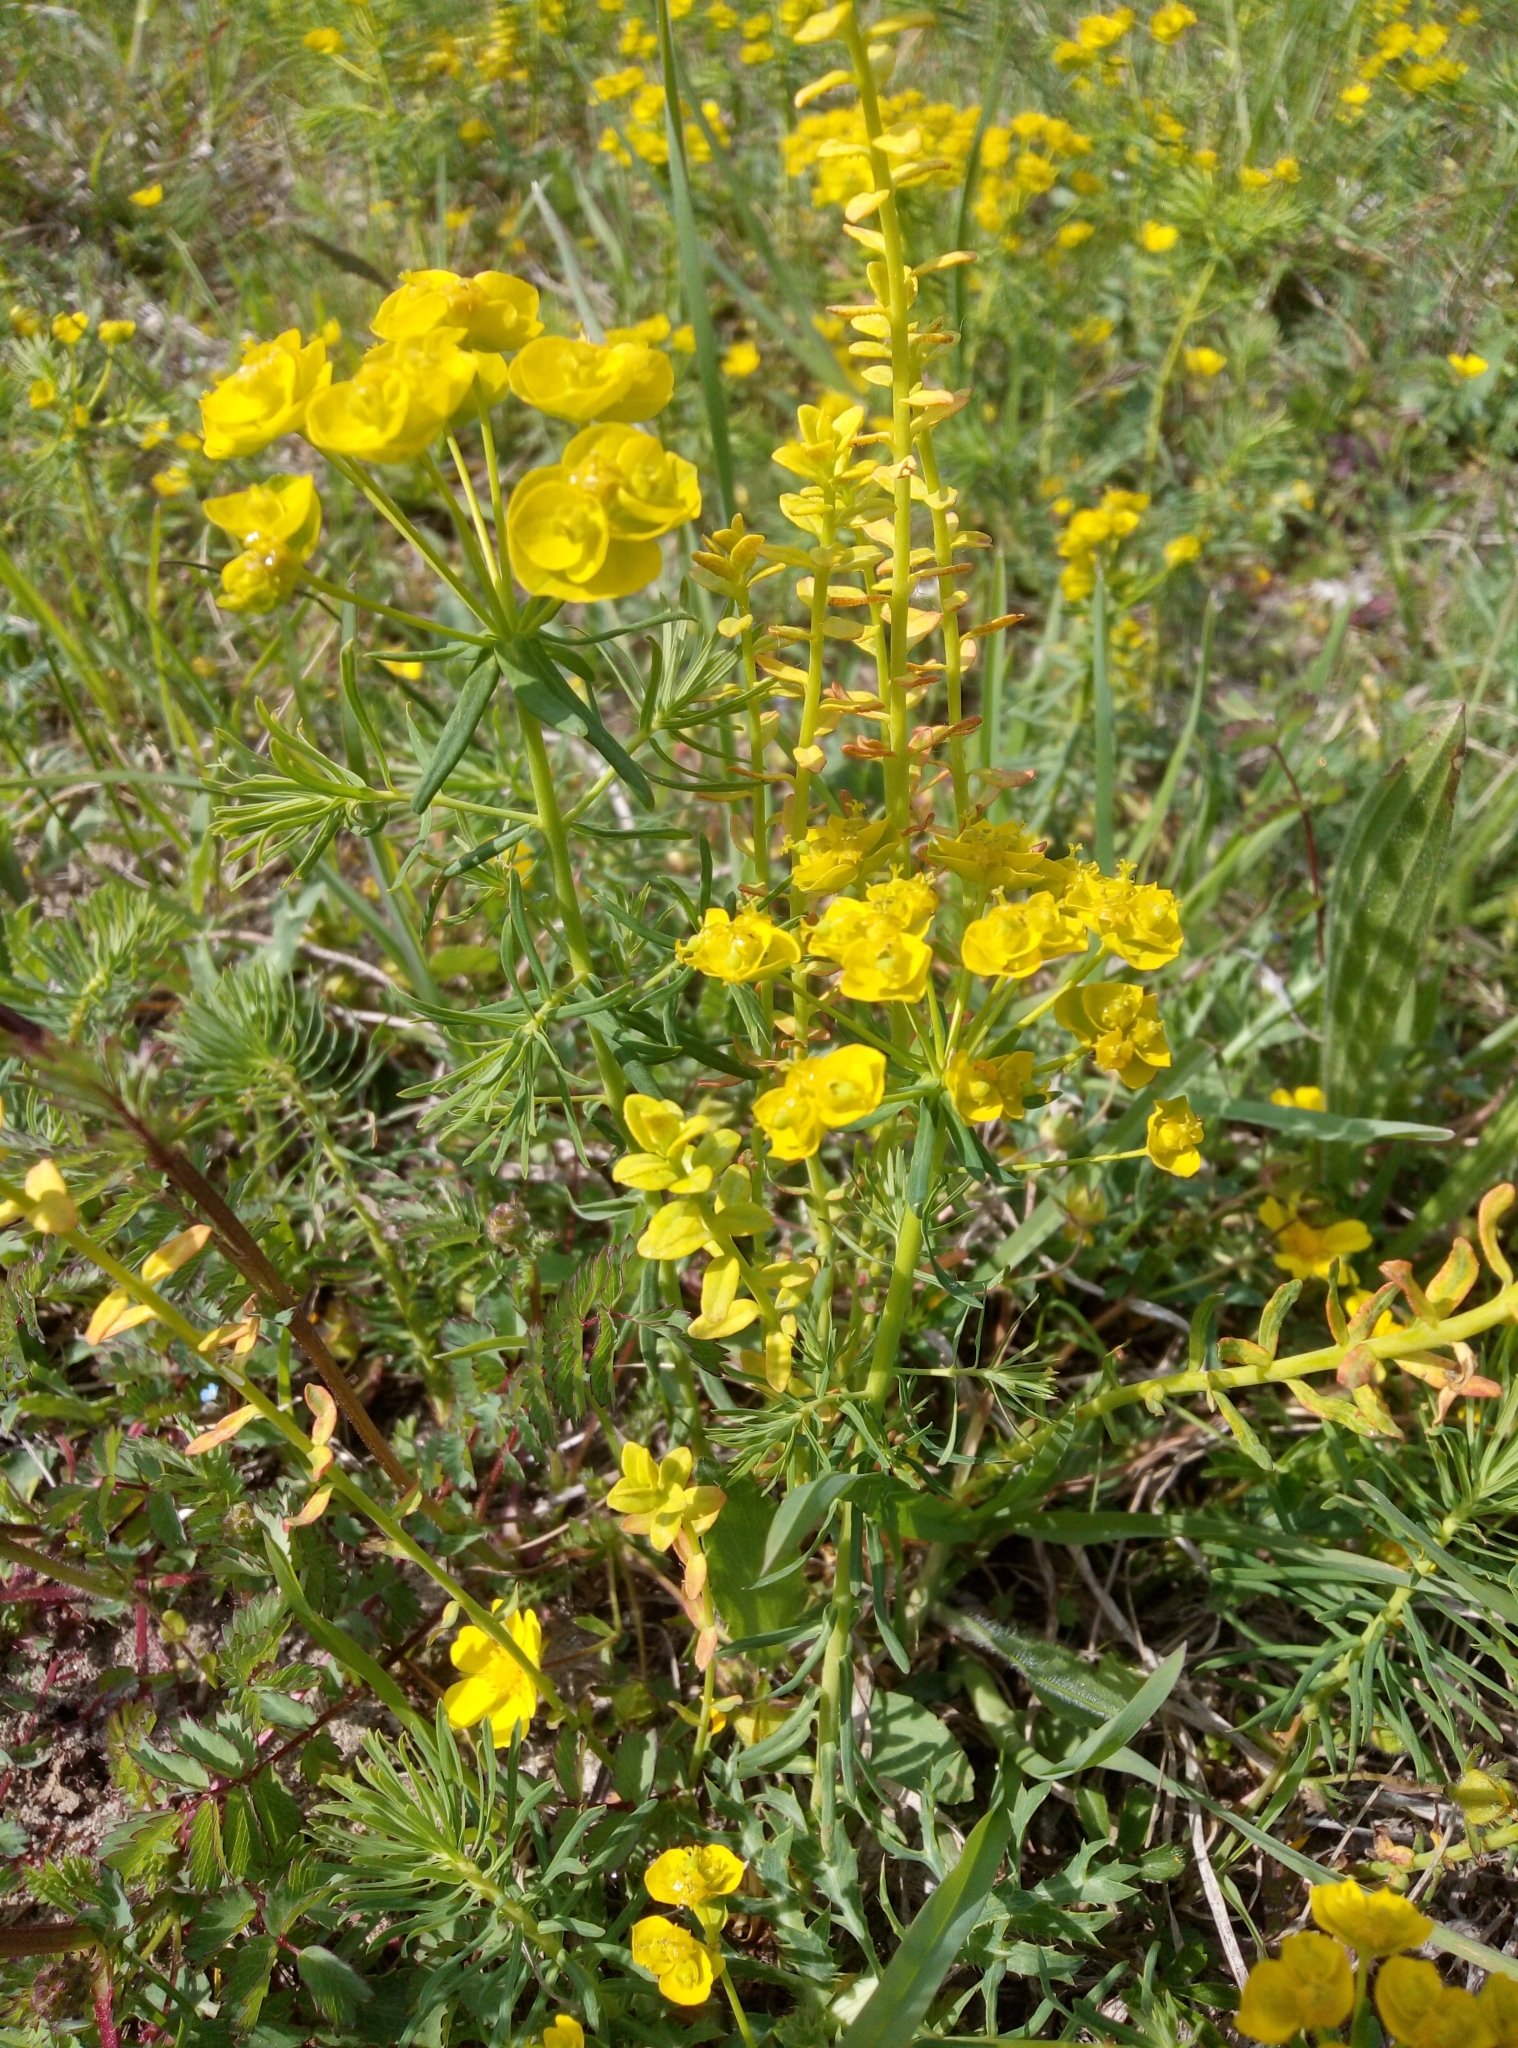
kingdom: Plantae
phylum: Tracheophyta
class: Magnoliopsida
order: Malpighiales
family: Euphorbiaceae
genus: Euphorbia
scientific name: Euphorbia cyparissias
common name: Cypress spurge
